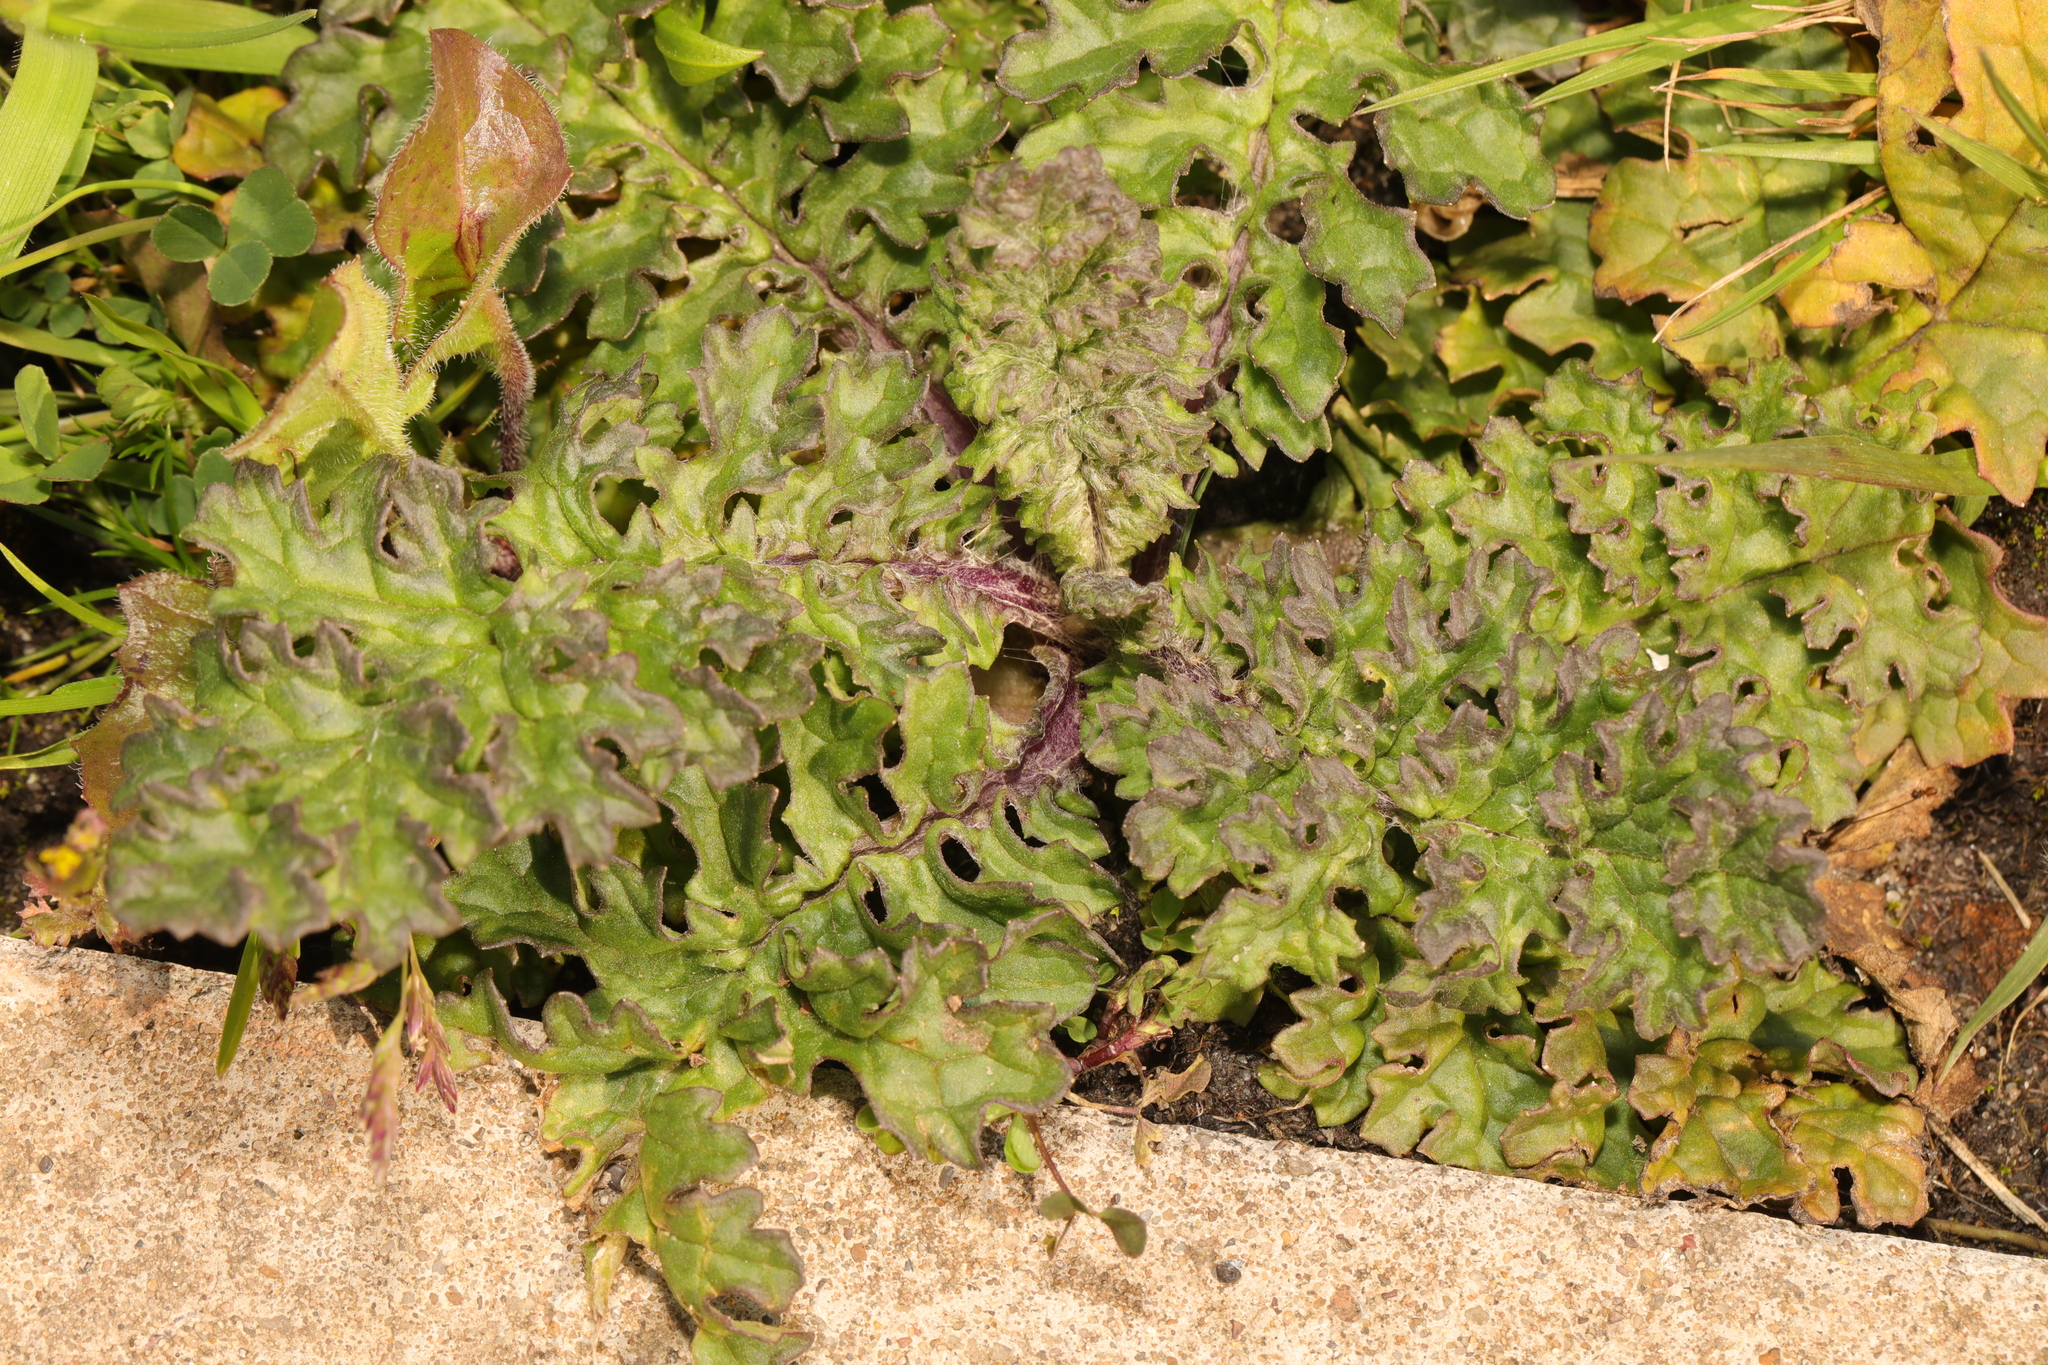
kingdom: Plantae
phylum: Tracheophyta
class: Magnoliopsida
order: Asterales
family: Asteraceae
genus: Jacobaea
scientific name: Jacobaea vulgaris
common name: Stinking willie
